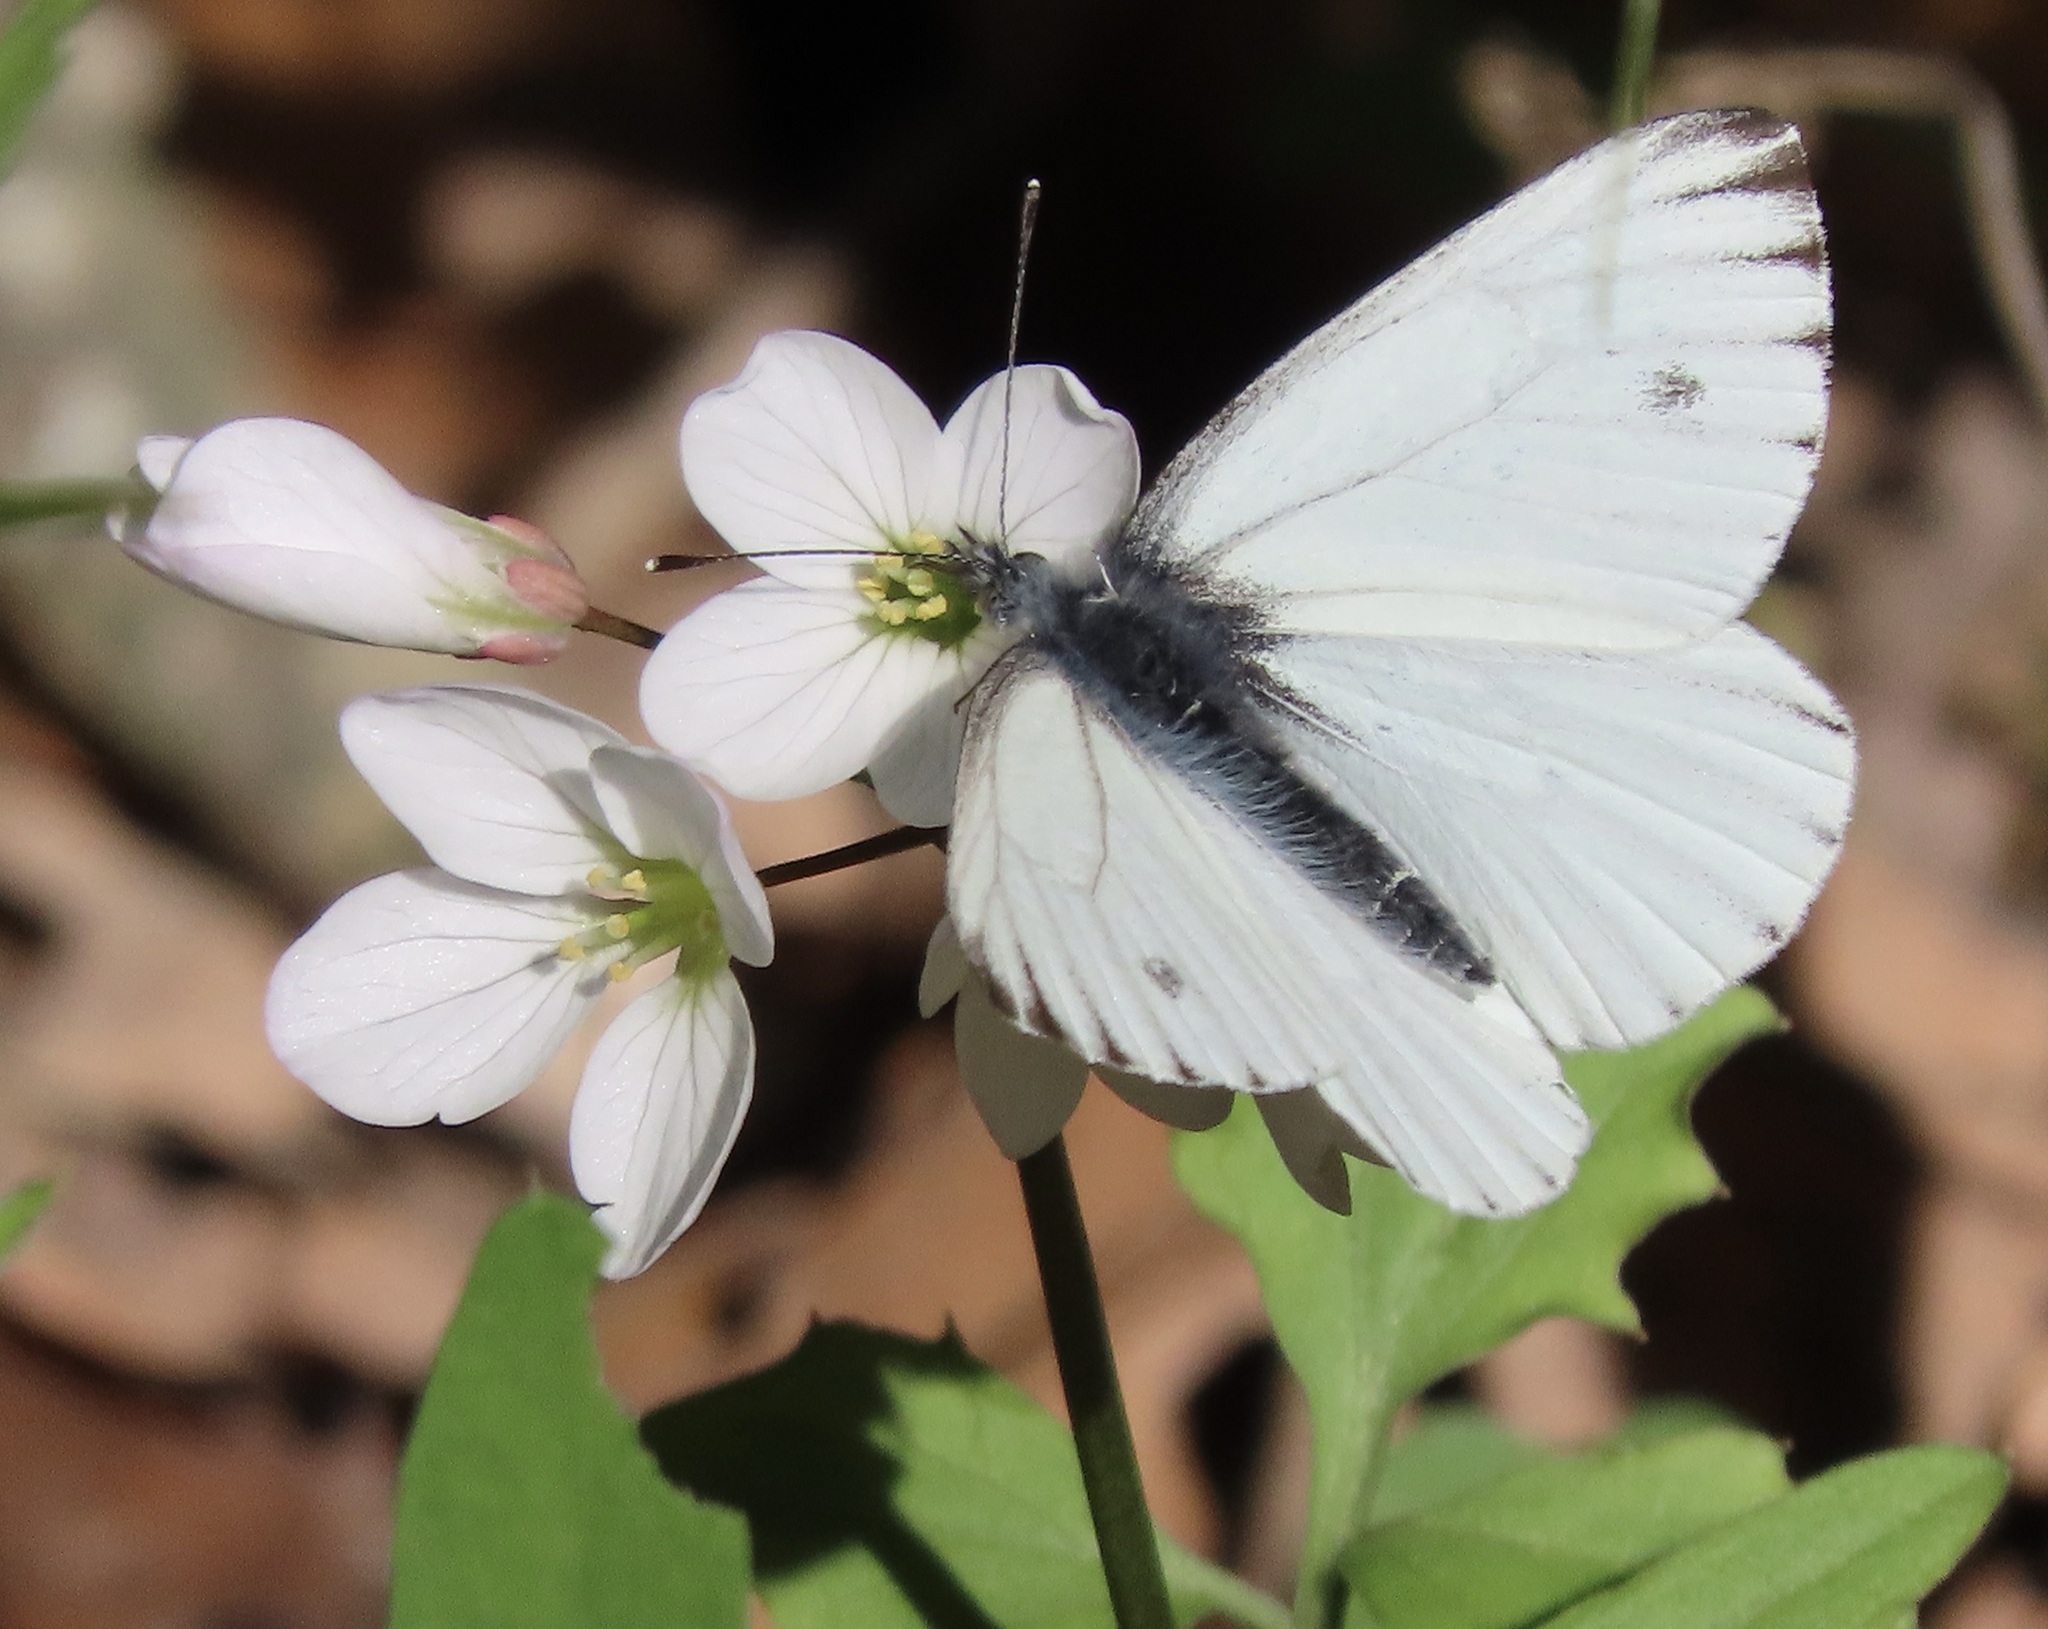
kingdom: Animalia
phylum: Arthropoda
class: Insecta
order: Lepidoptera
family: Pieridae
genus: Pieris
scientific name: Pieris marginalis
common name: Margined white
